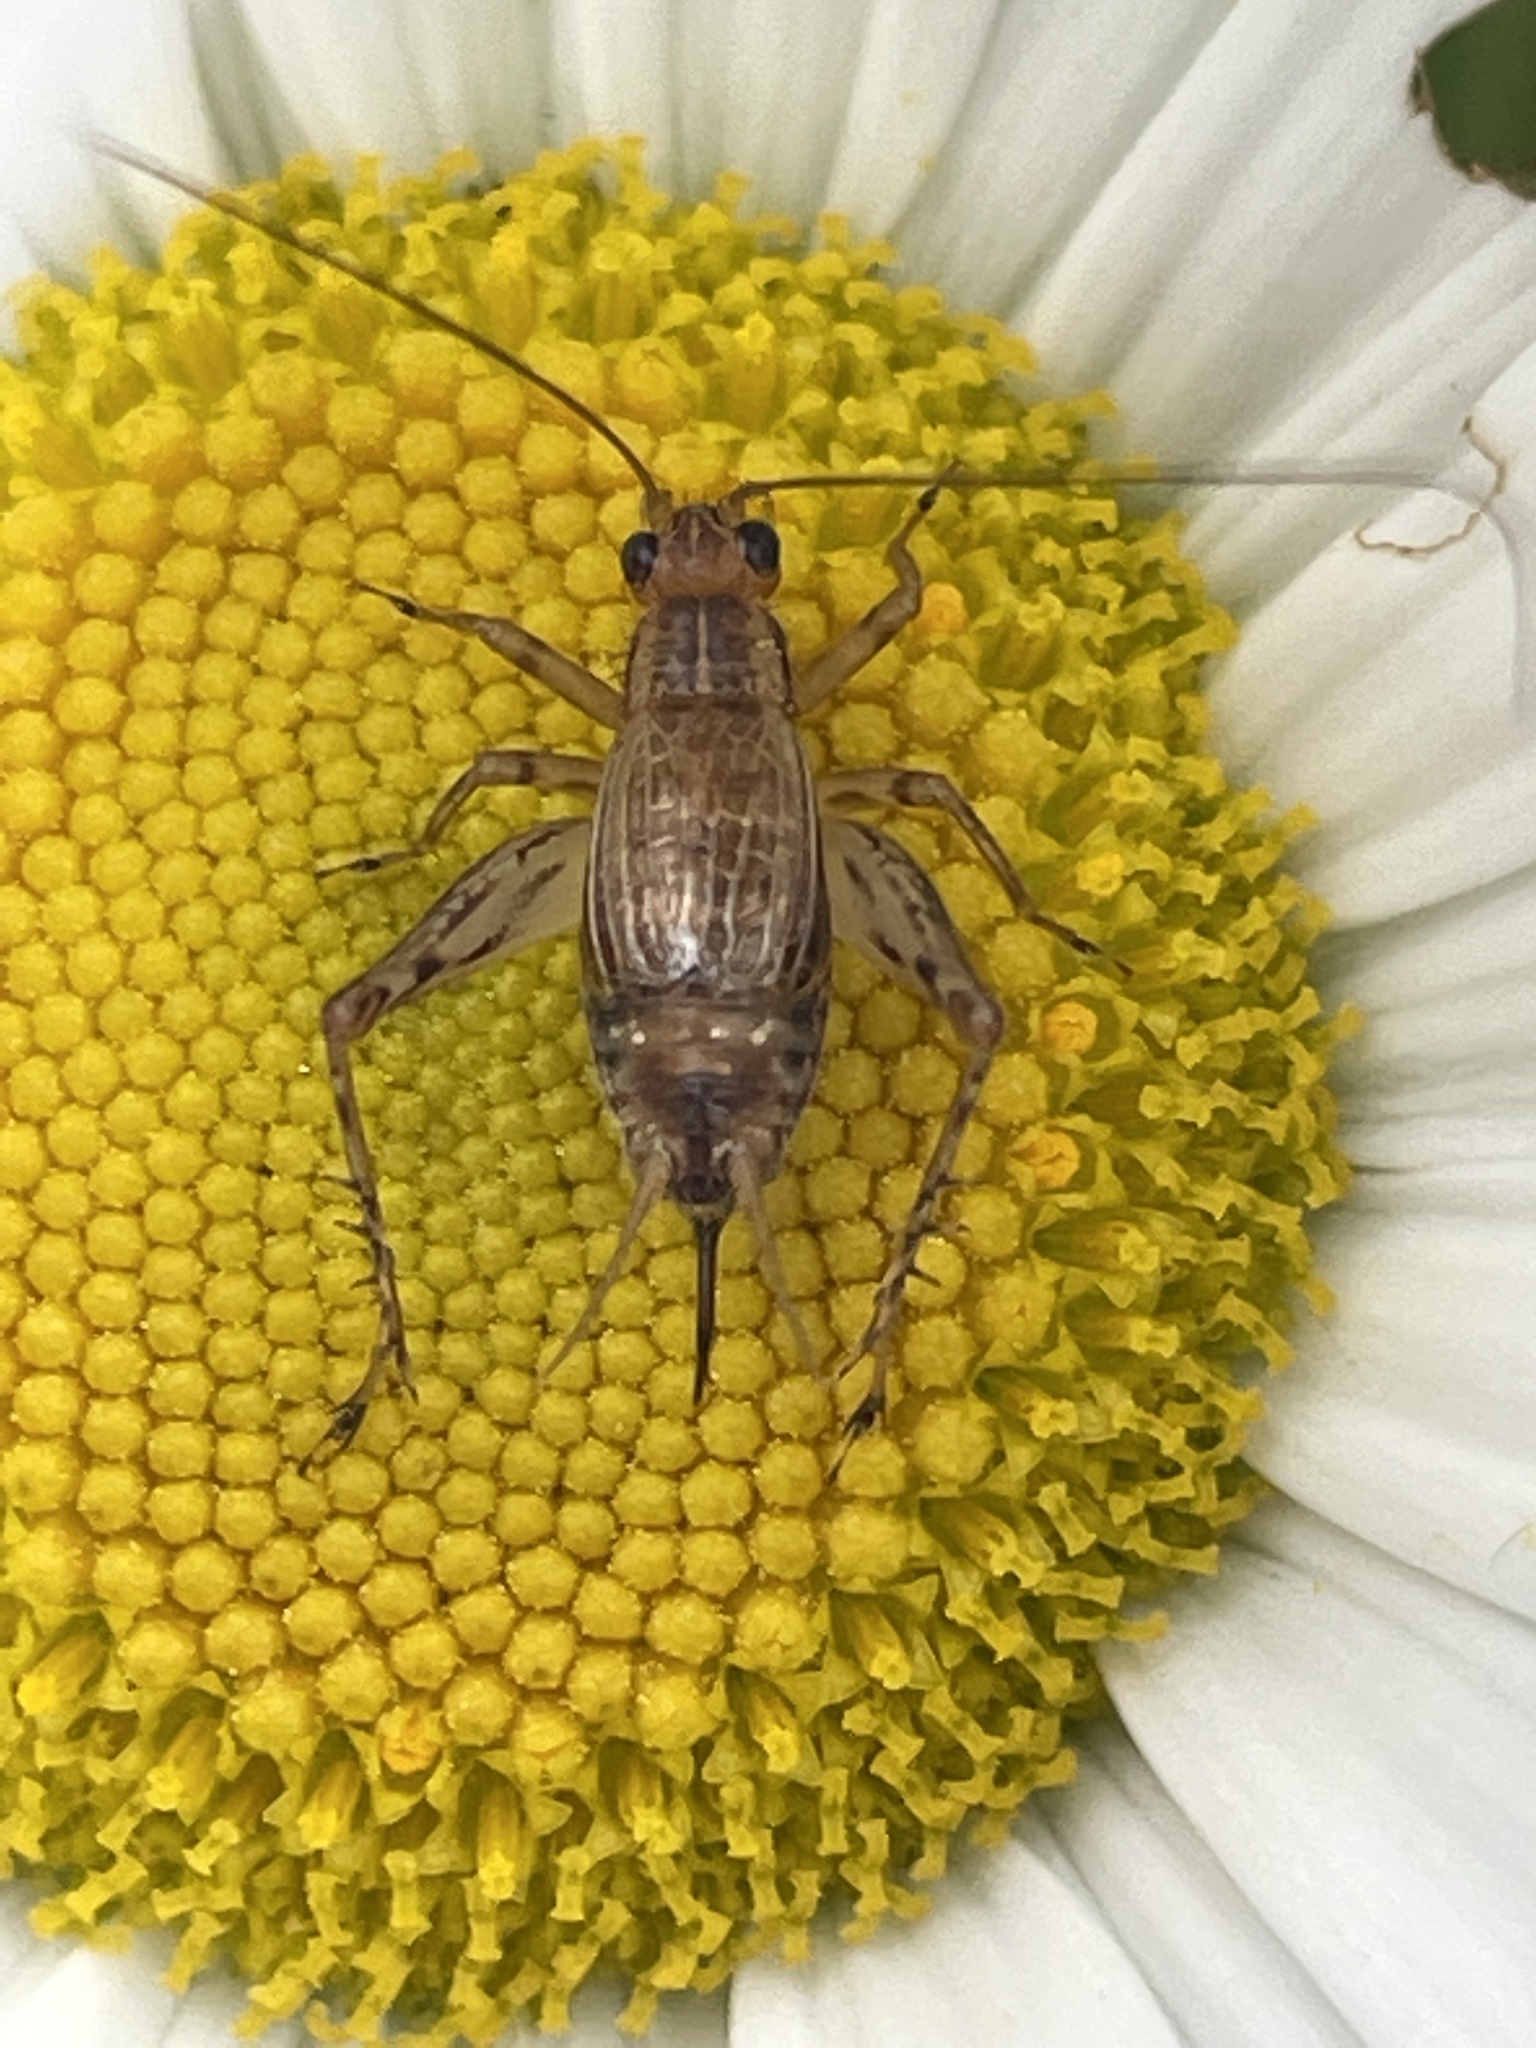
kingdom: Animalia
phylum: Arthropoda
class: Insecta
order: Orthoptera
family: Trigonidiidae
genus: Anaxipha
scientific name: Anaxipha exigua
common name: Say's bush cricket
